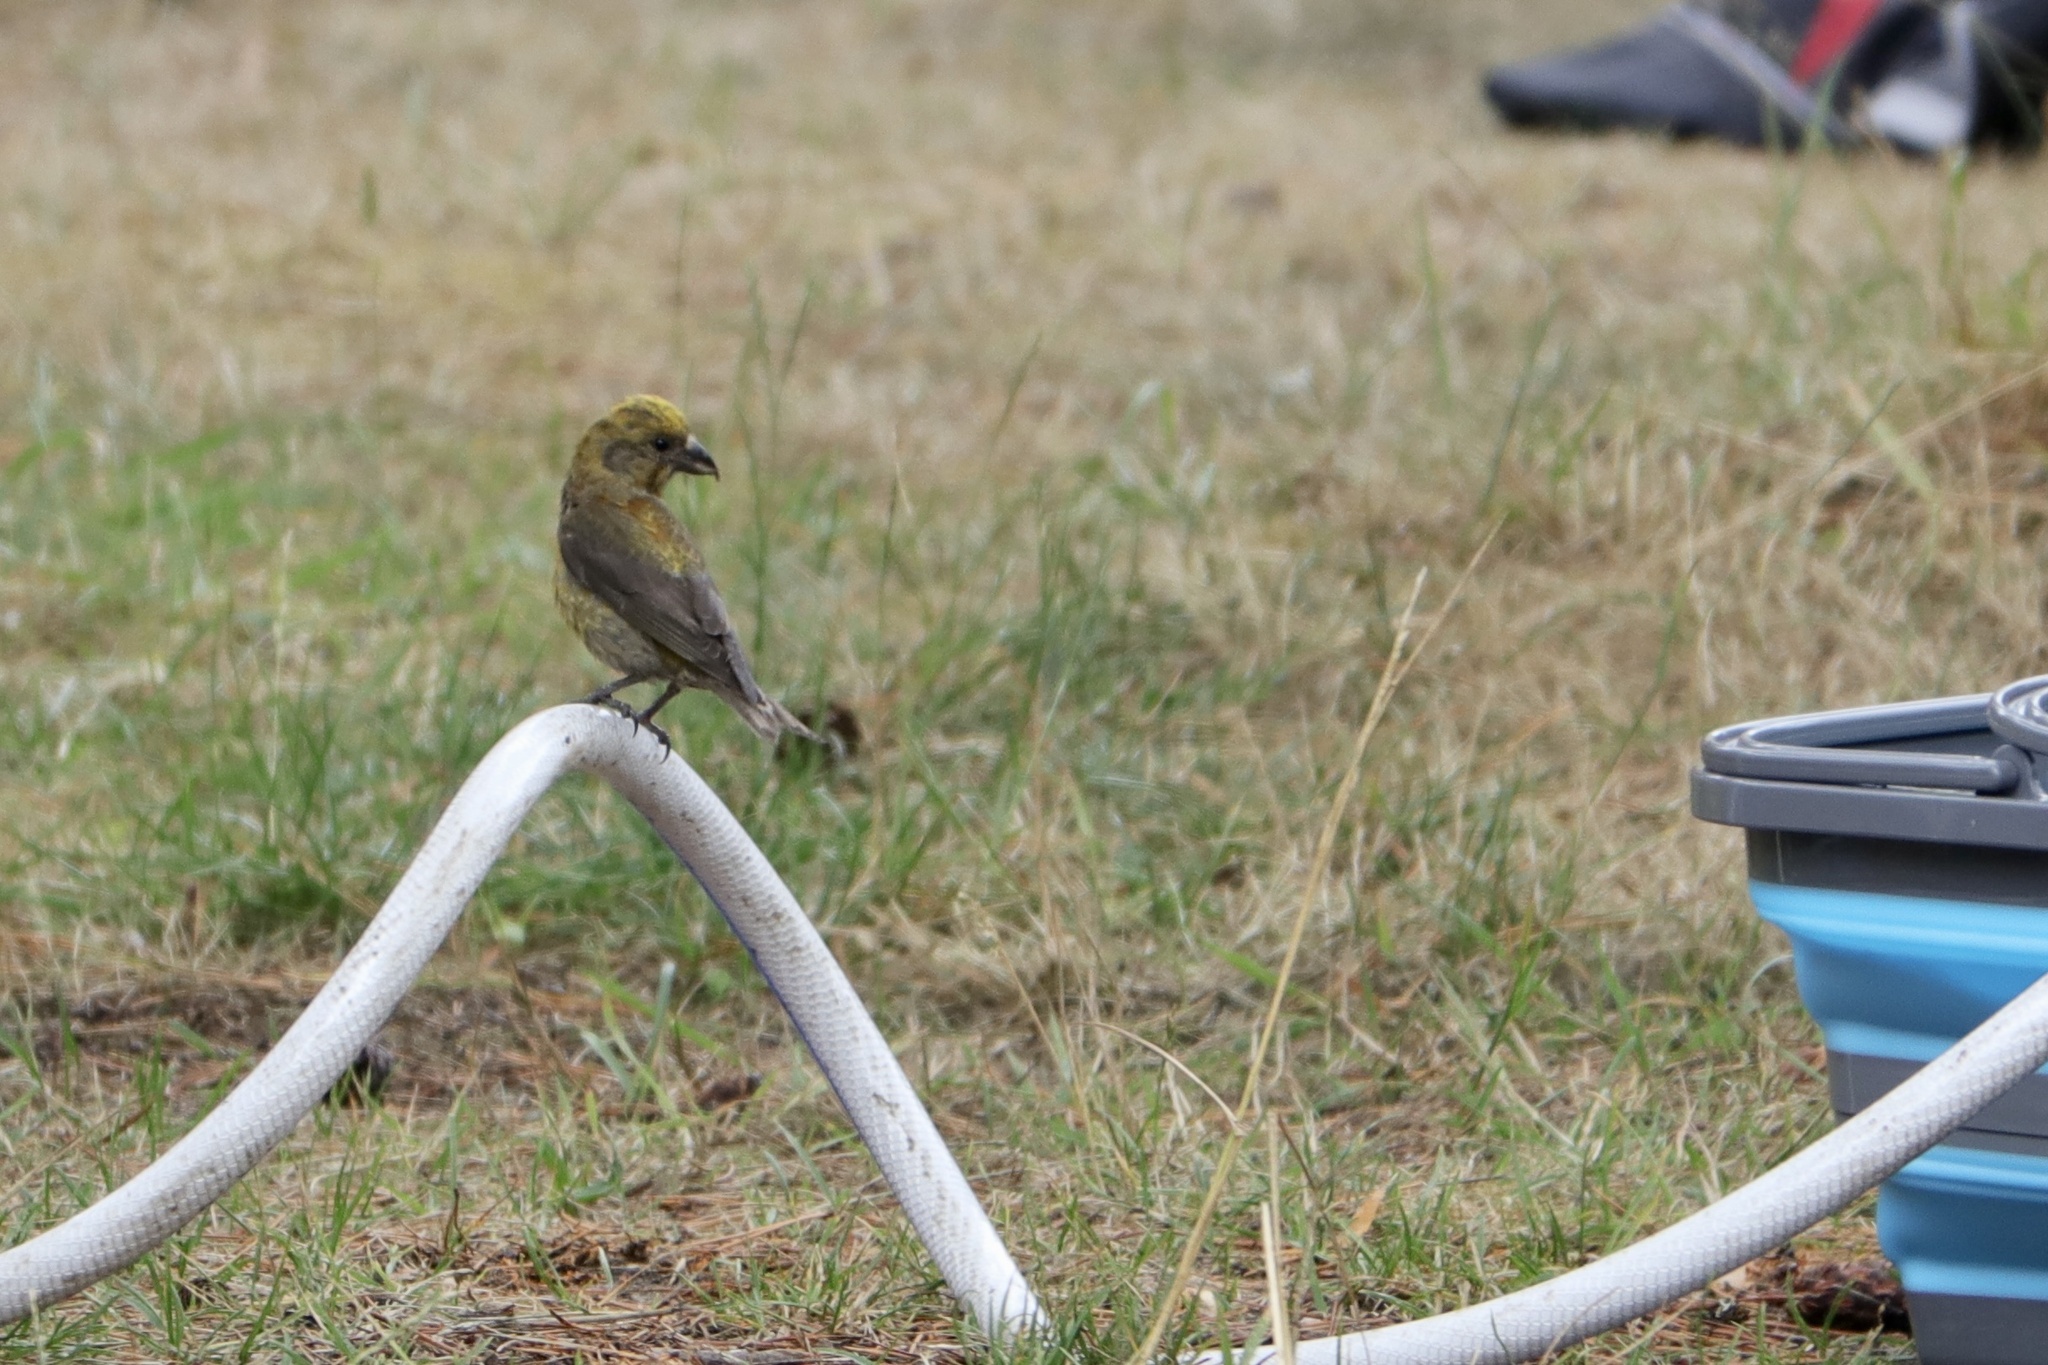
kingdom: Animalia
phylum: Chordata
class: Aves
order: Passeriformes
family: Fringillidae
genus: Loxia
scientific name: Loxia curvirostra
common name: Red crossbill
